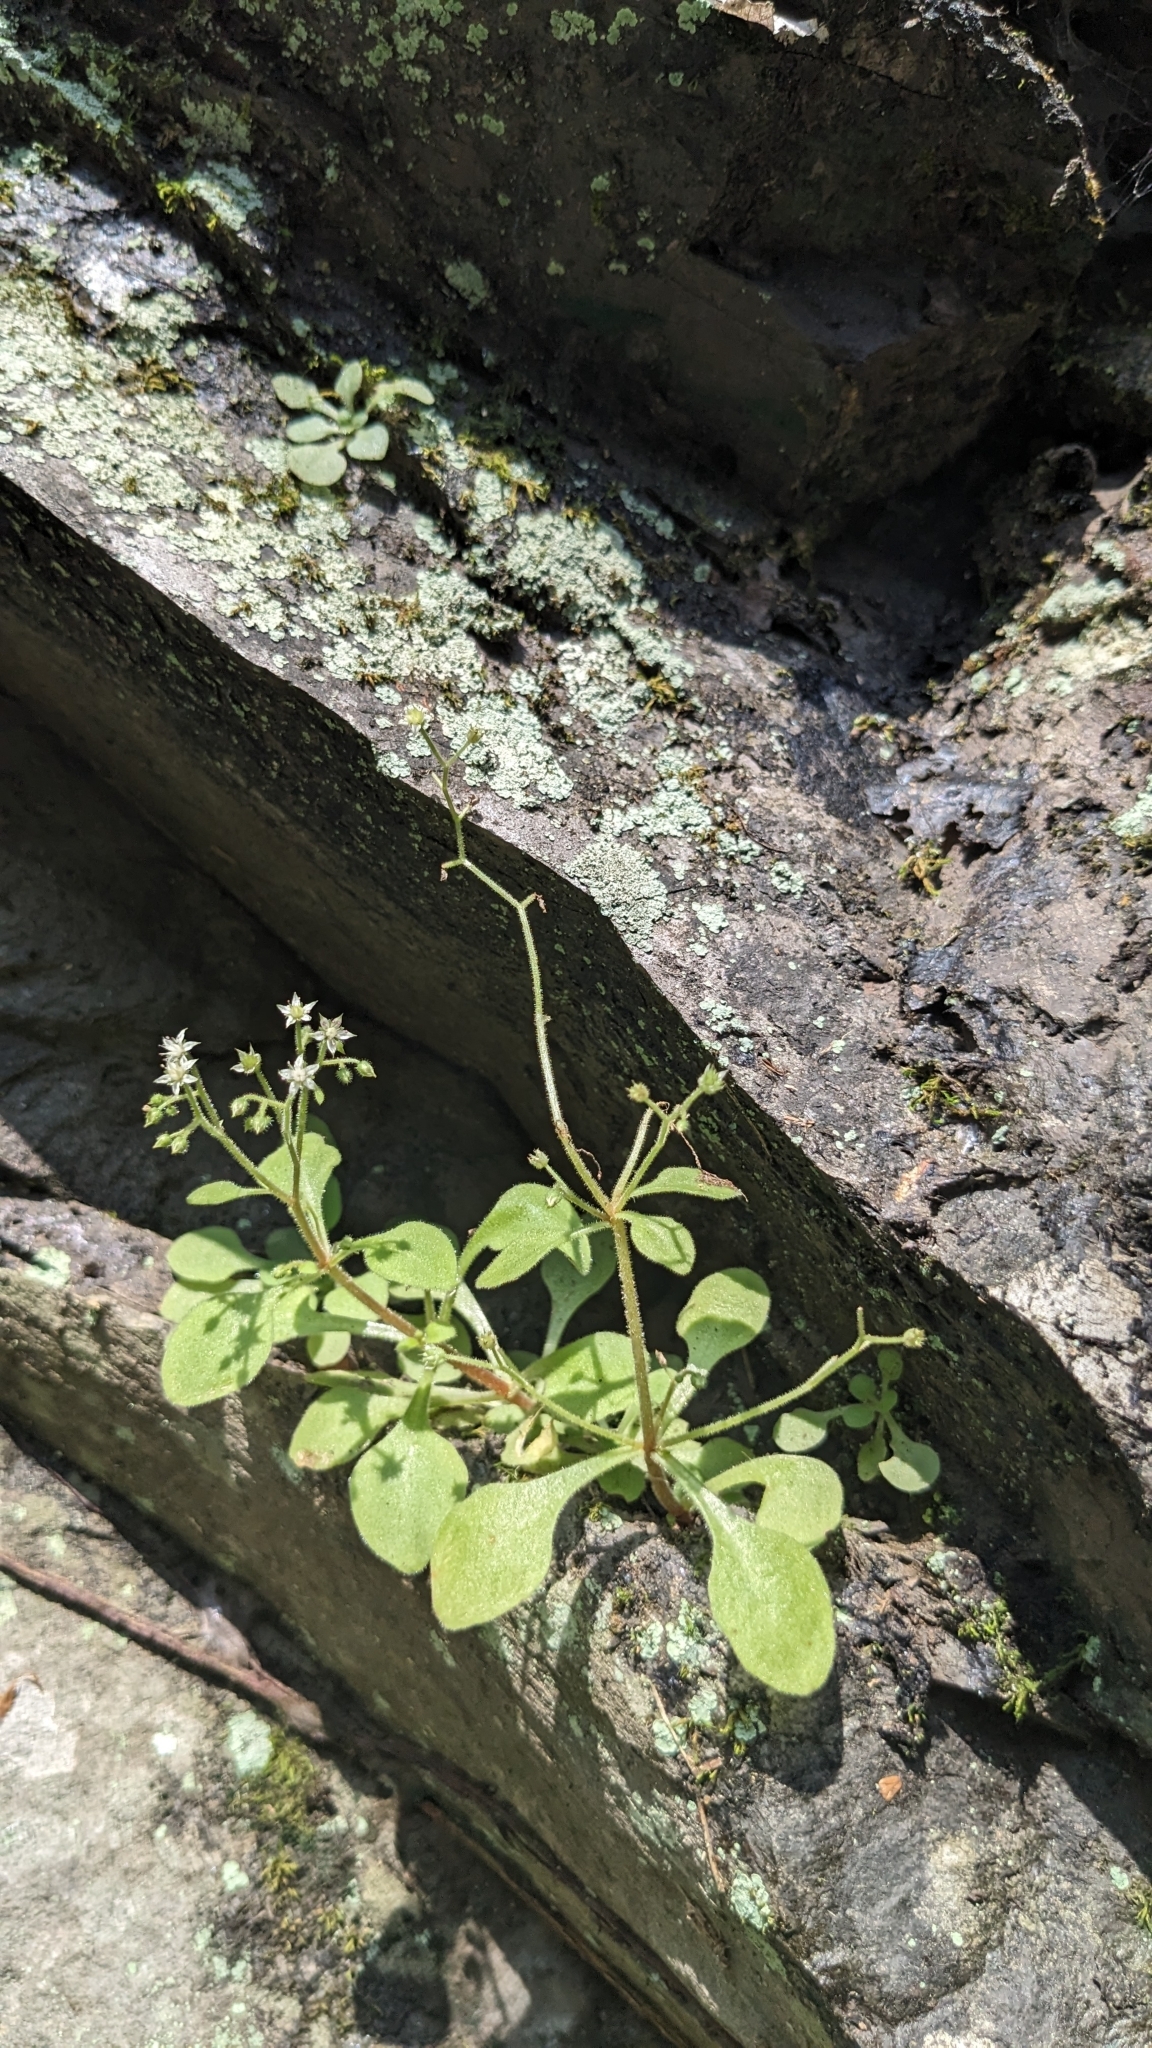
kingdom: Plantae
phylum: Tracheophyta
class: Magnoliopsida
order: Saxifragales
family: Crassulaceae
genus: Sedum
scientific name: Sedum drymarioides
